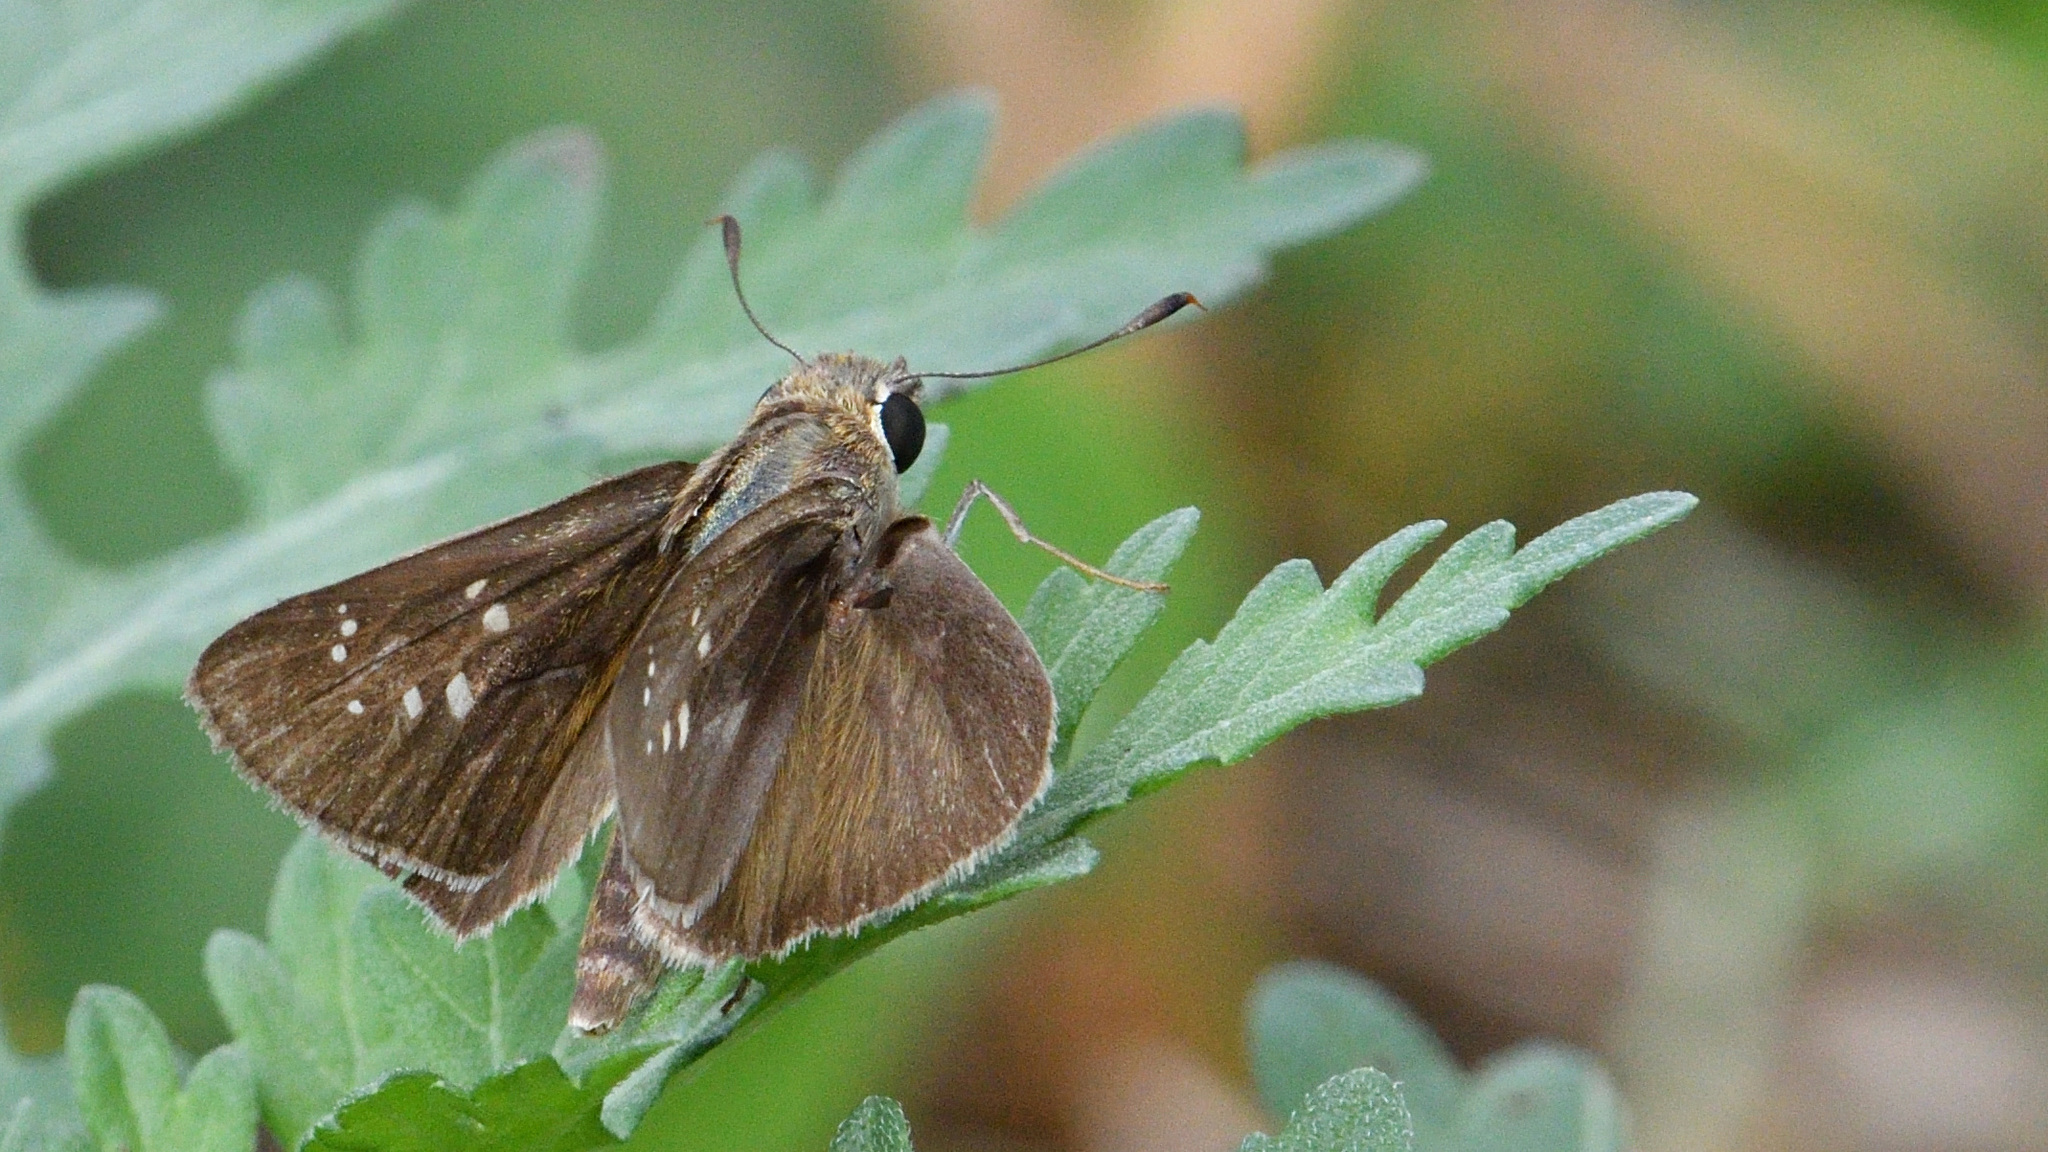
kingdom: Animalia
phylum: Arthropoda
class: Insecta
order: Lepidoptera
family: Hesperiidae
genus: Pelopidas
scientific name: Pelopidas mathias
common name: Black-branded swift
